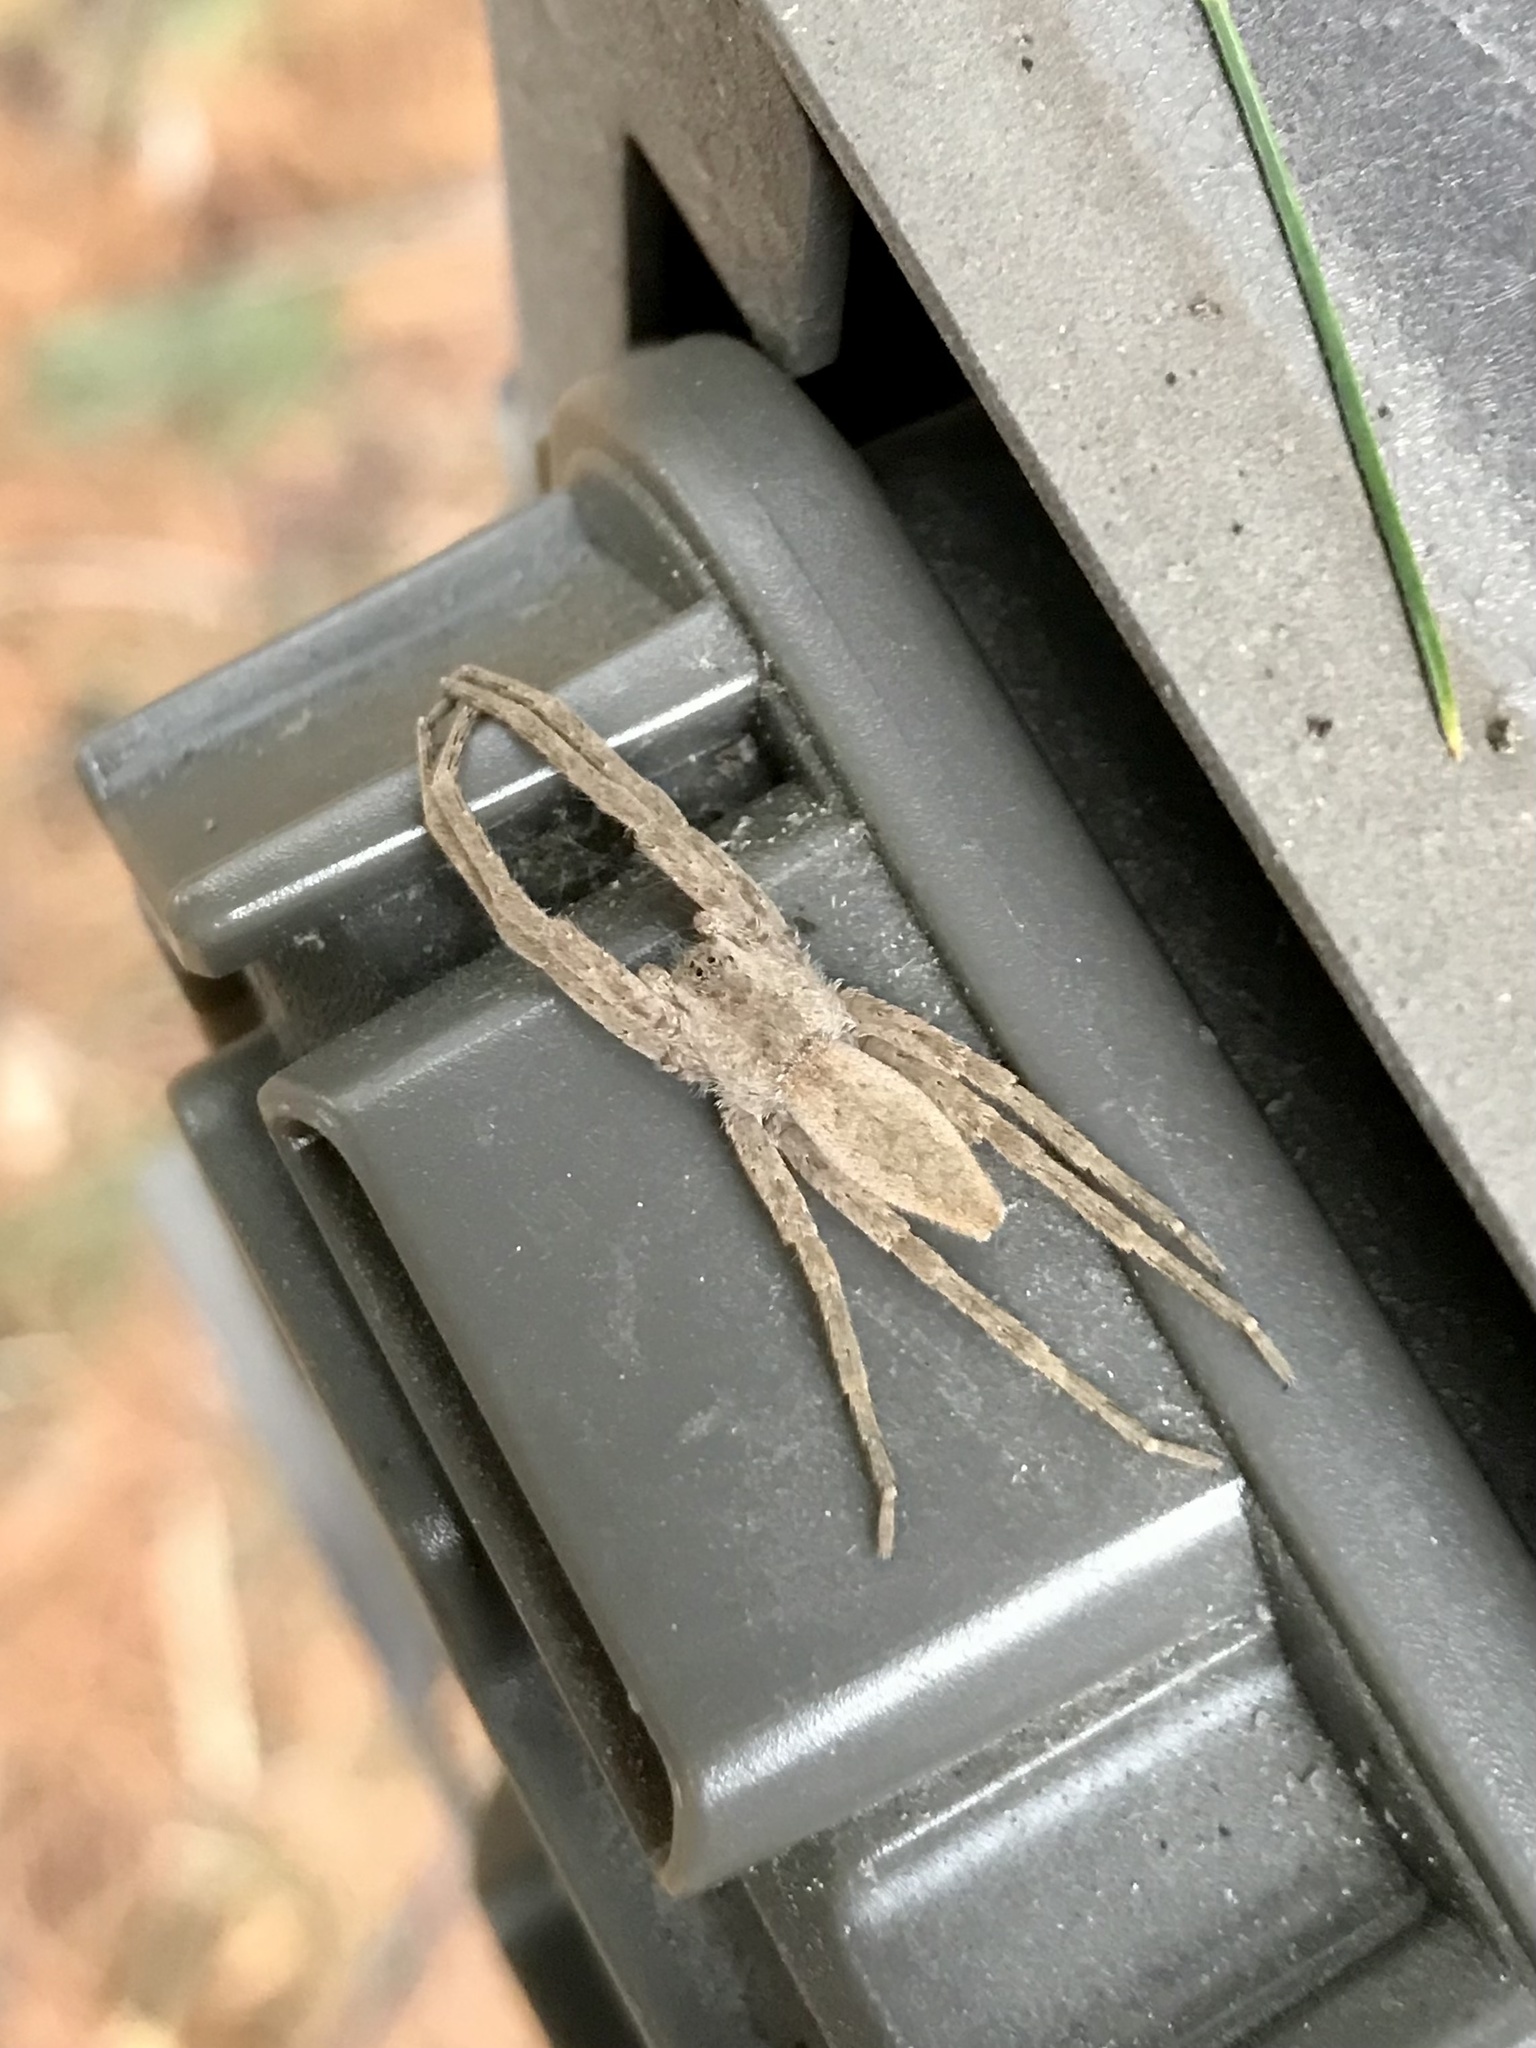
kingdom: Animalia
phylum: Arthropoda
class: Arachnida
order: Araneae
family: Pisauridae
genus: Pisaurina
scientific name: Pisaurina mira
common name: American nursery web spider
